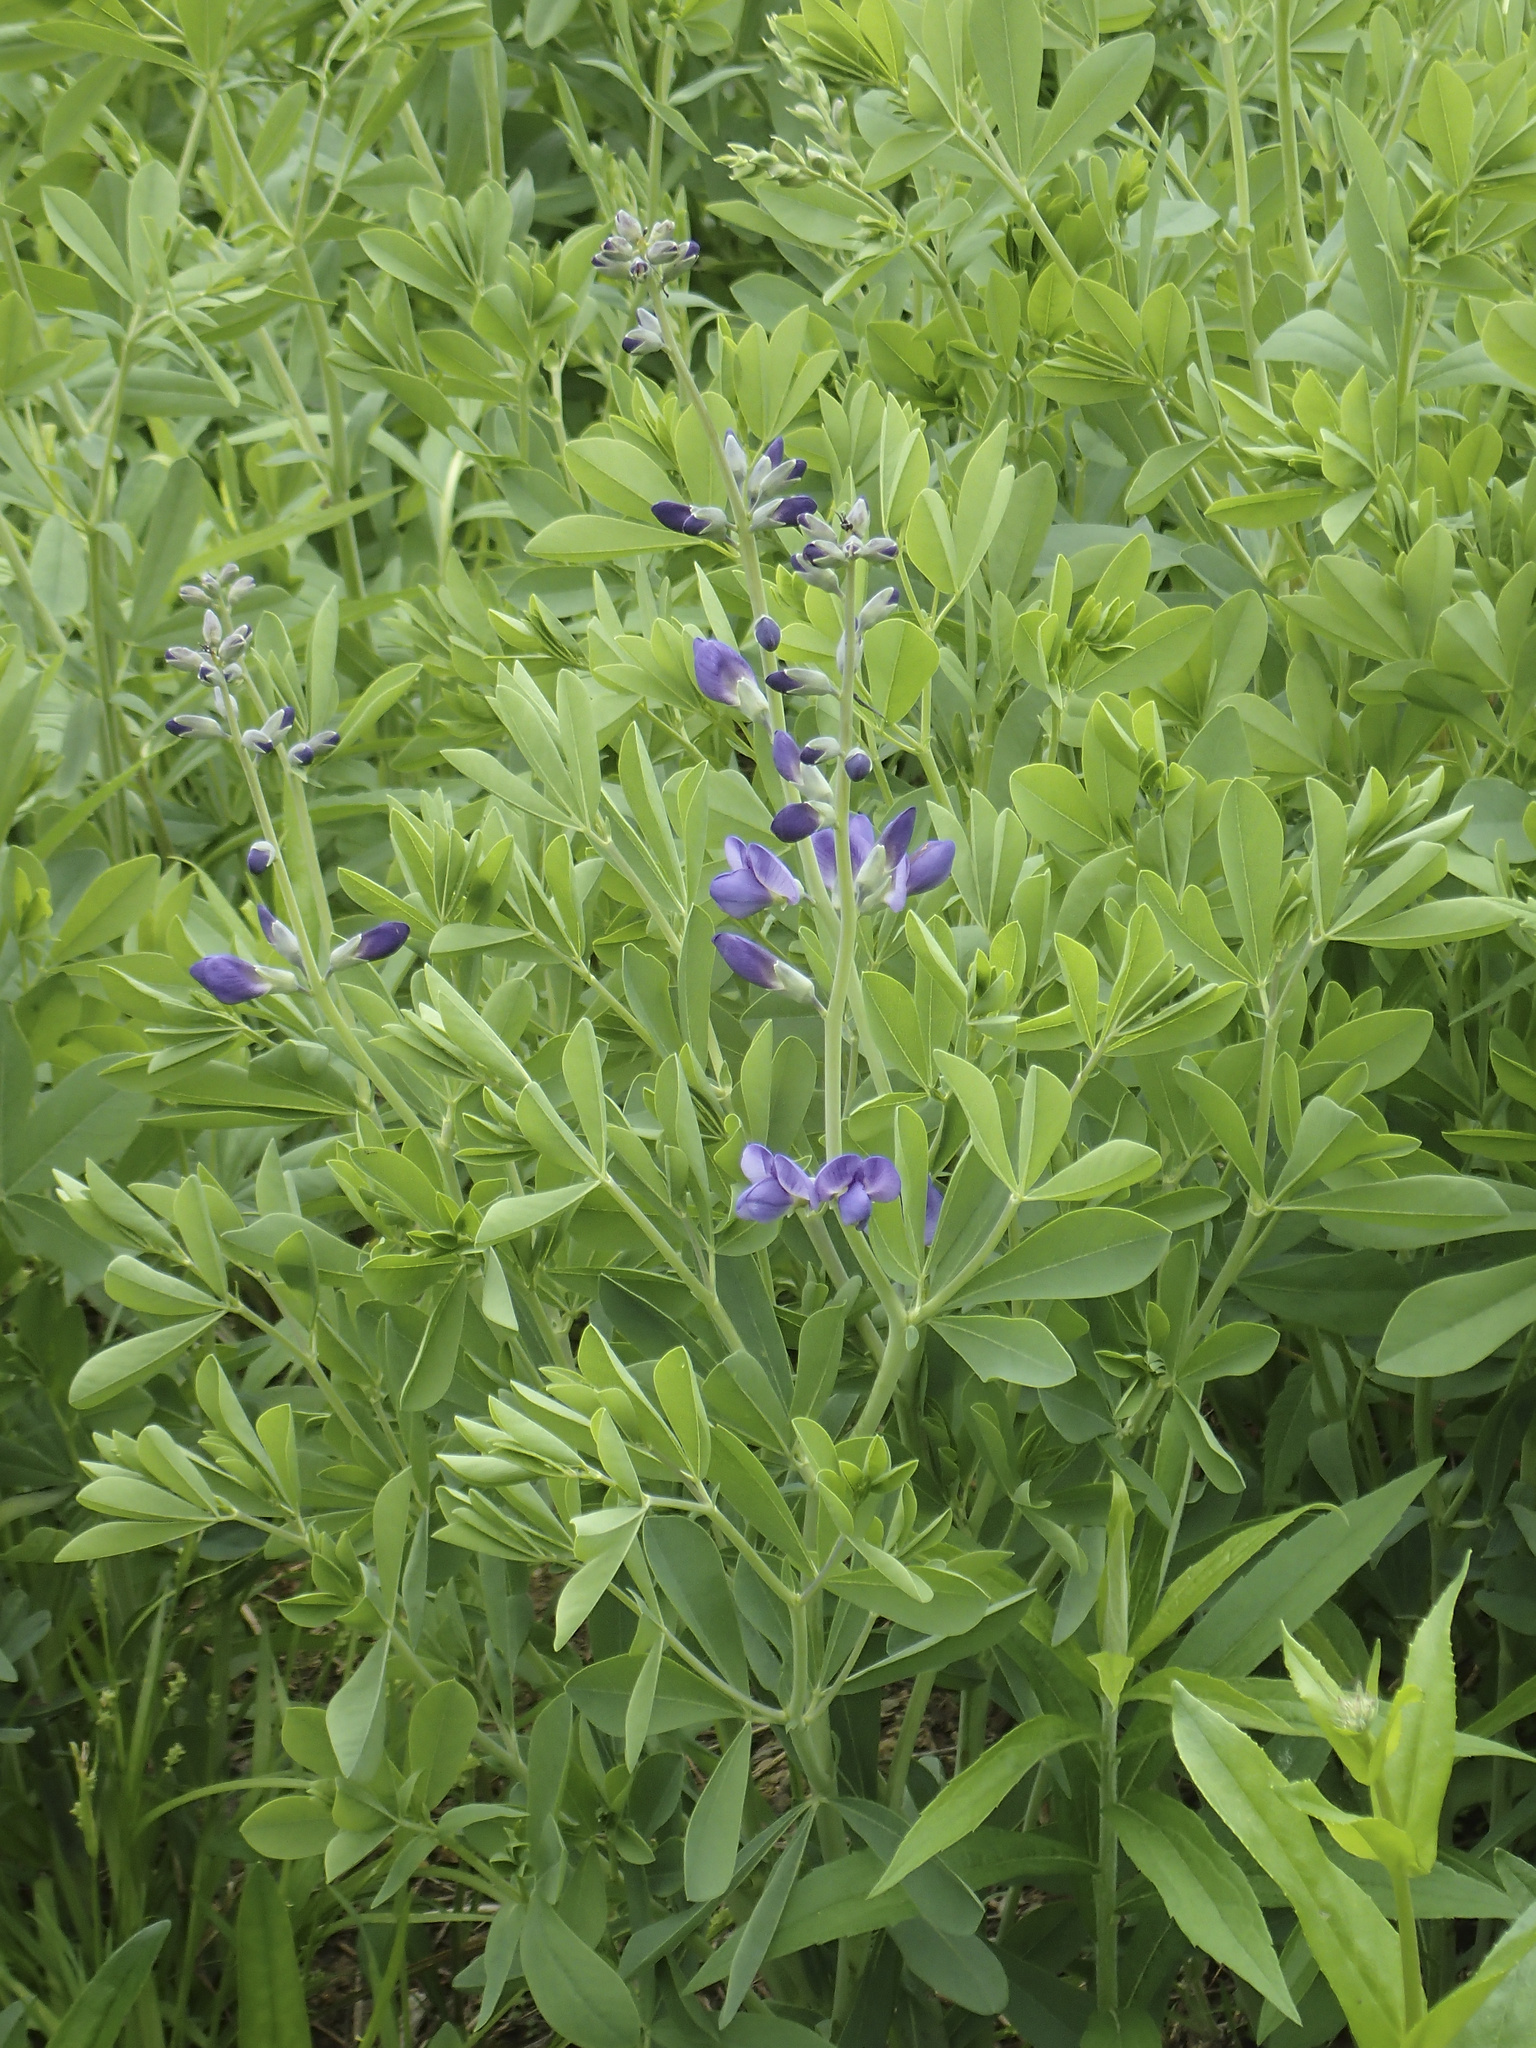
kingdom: Plantae
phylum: Tracheophyta
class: Magnoliopsida
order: Fabales
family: Fabaceae
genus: Baptisia
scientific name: Baptisia australis
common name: Blue false indigo
